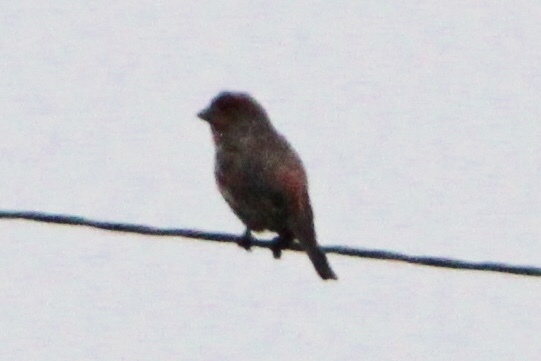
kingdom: Animalia
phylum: Chordata
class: Aves
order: Passeriformes
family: Fringillidae
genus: Haemorhous
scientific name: Haemorhous mexicanus
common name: House finch
